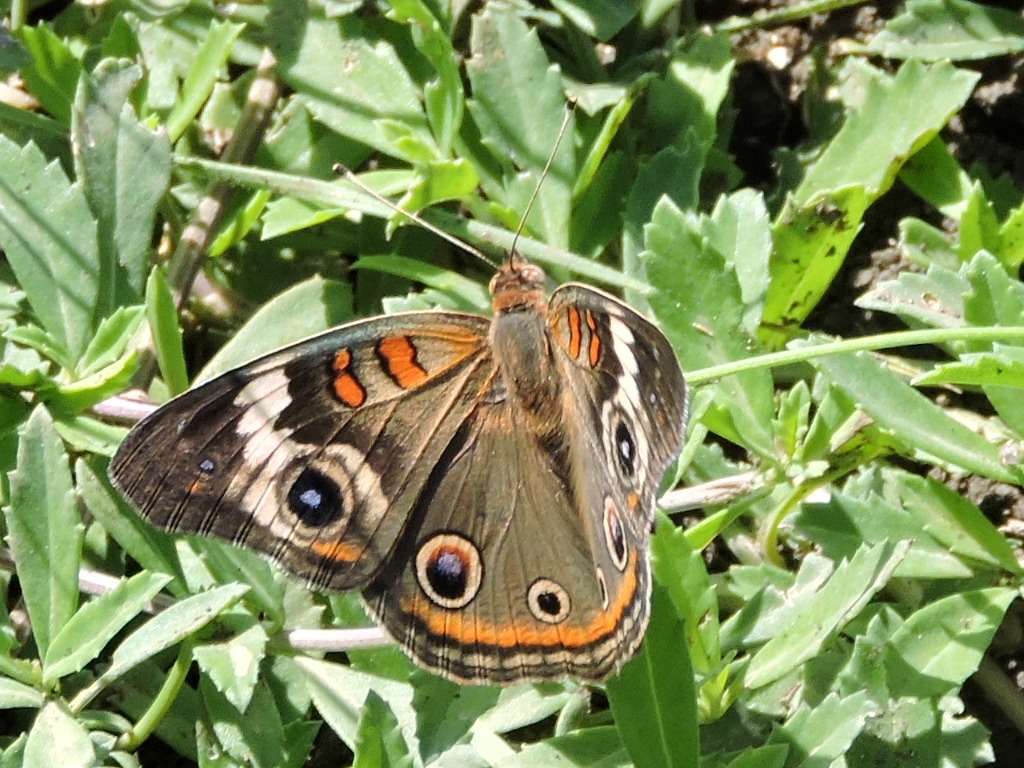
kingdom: Animalia
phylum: Arthropoda
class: Insecta
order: Lepidoptera
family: Nymphalidae
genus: Junonia
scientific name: Junonia coenia
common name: Common buckeye
